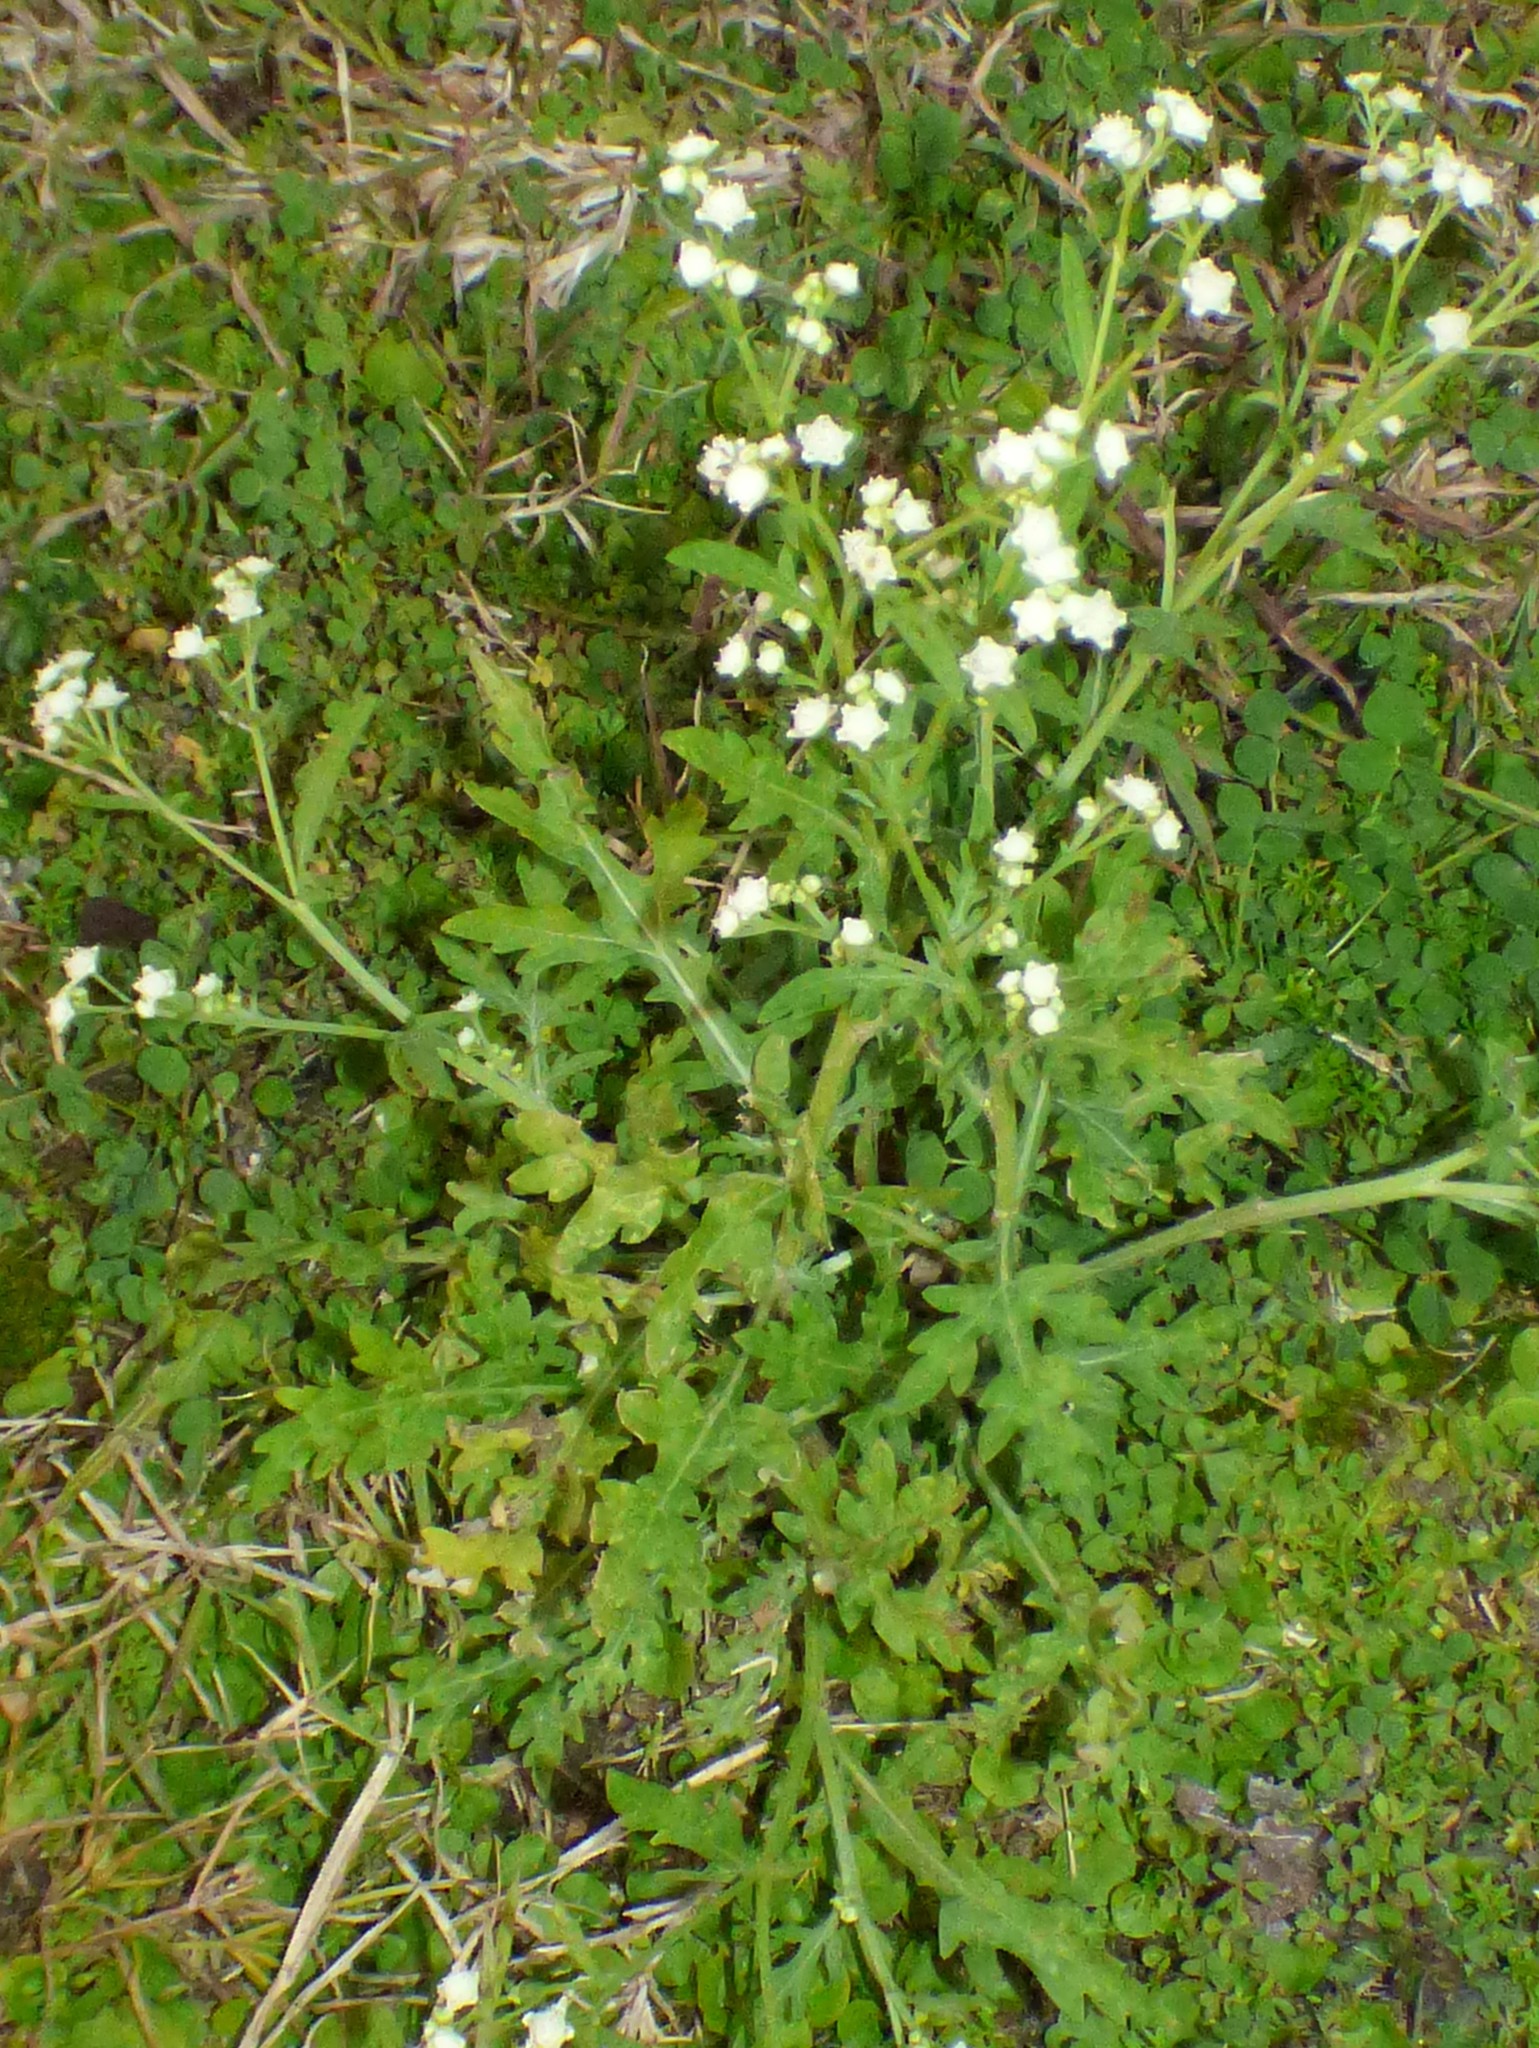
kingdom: Plantae
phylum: Tracheophyta
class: Magnoliopsida
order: Asterales
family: Asteraceae
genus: Parthenium
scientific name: Parthenium hysterophorus
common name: Santa maria feverfew
